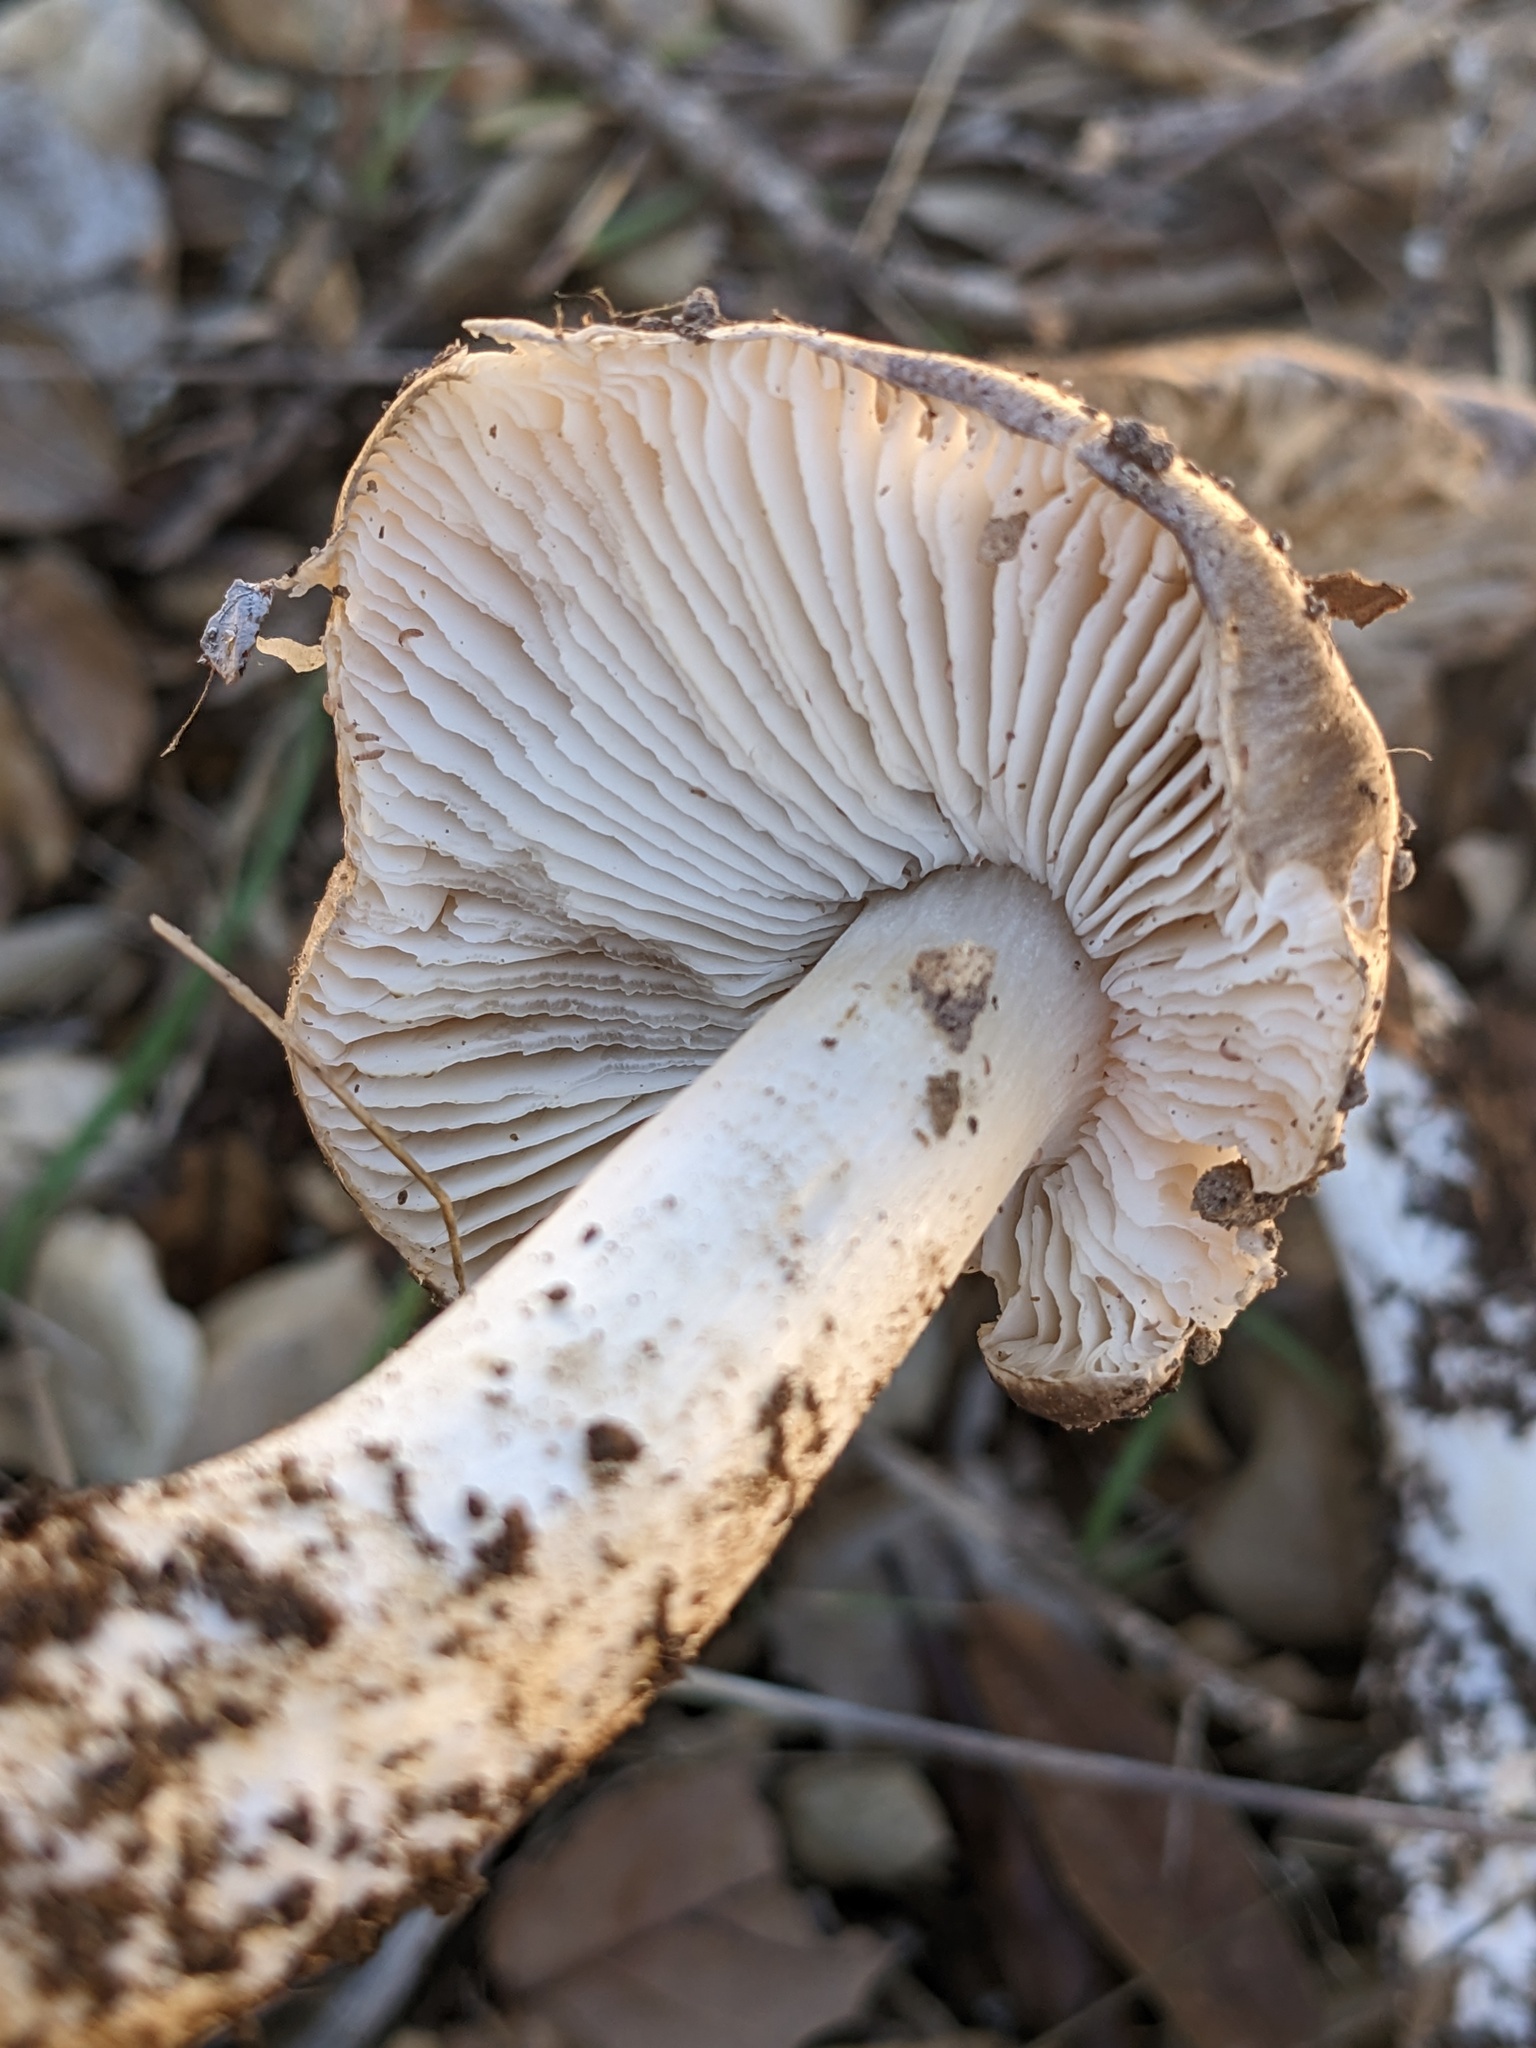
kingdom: Fungi
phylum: Basidiomycota
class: Agaricomycetes
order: Agaricales
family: Tricholomataceae
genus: Tricholoma
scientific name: Tricholoma griseoviolaceum
